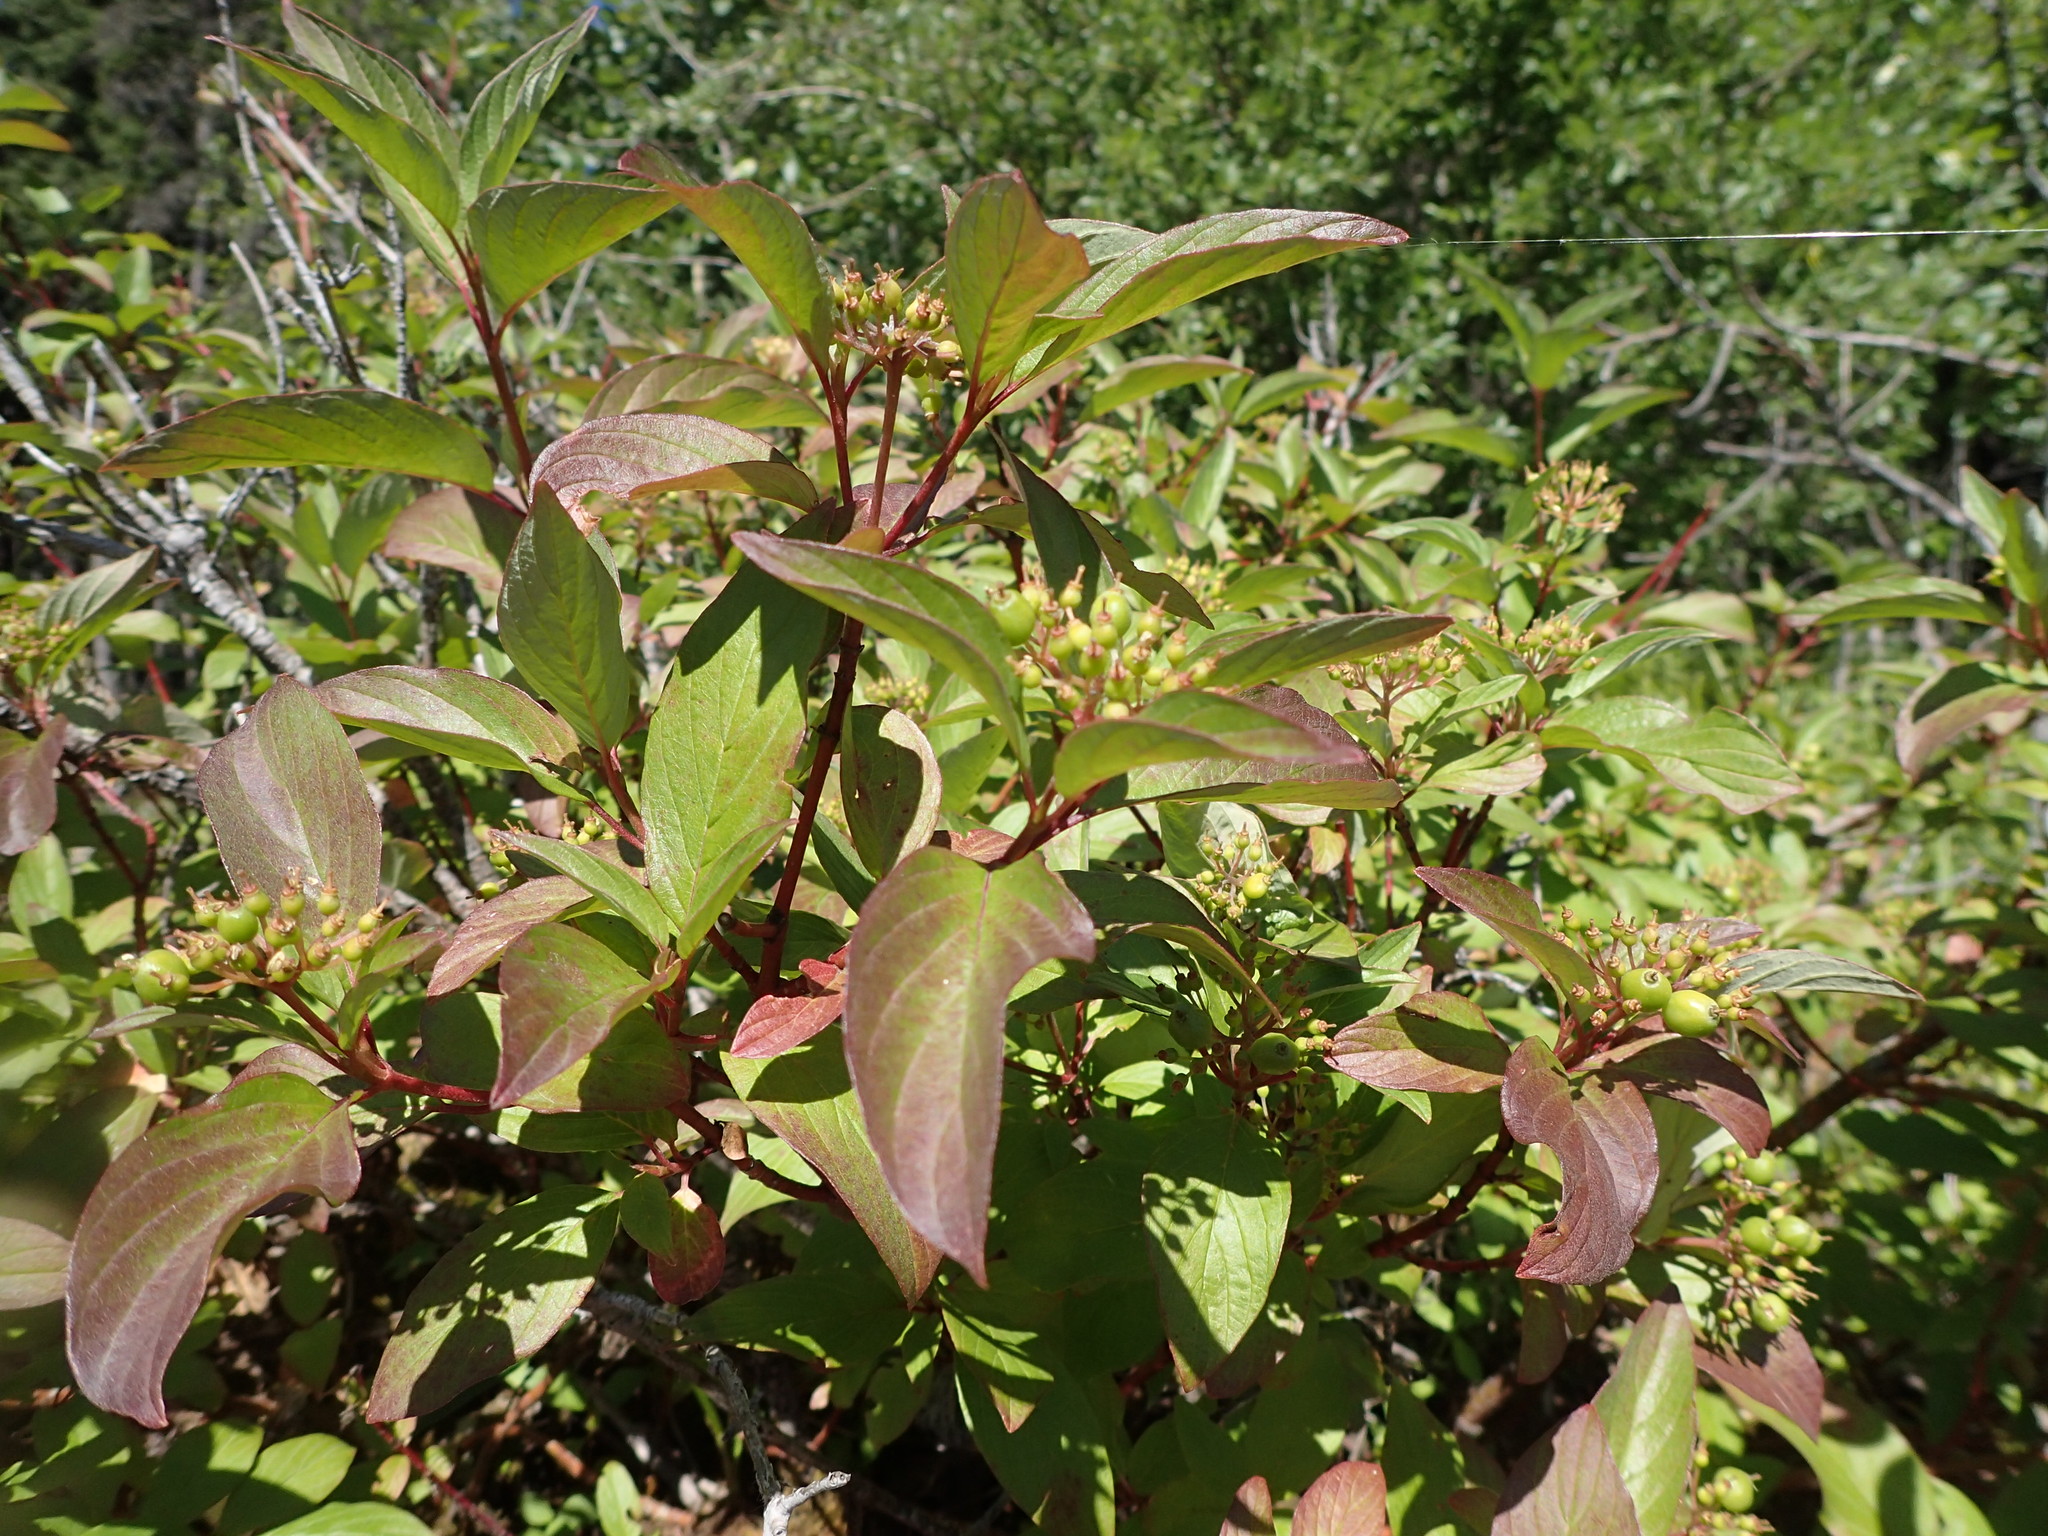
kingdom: Plantae
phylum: Tracheophyta
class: Magnoliopsida
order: Cornales
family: Cornaceae
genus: Cornus
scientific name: Cornus sericea
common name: Red-osier dogwood
